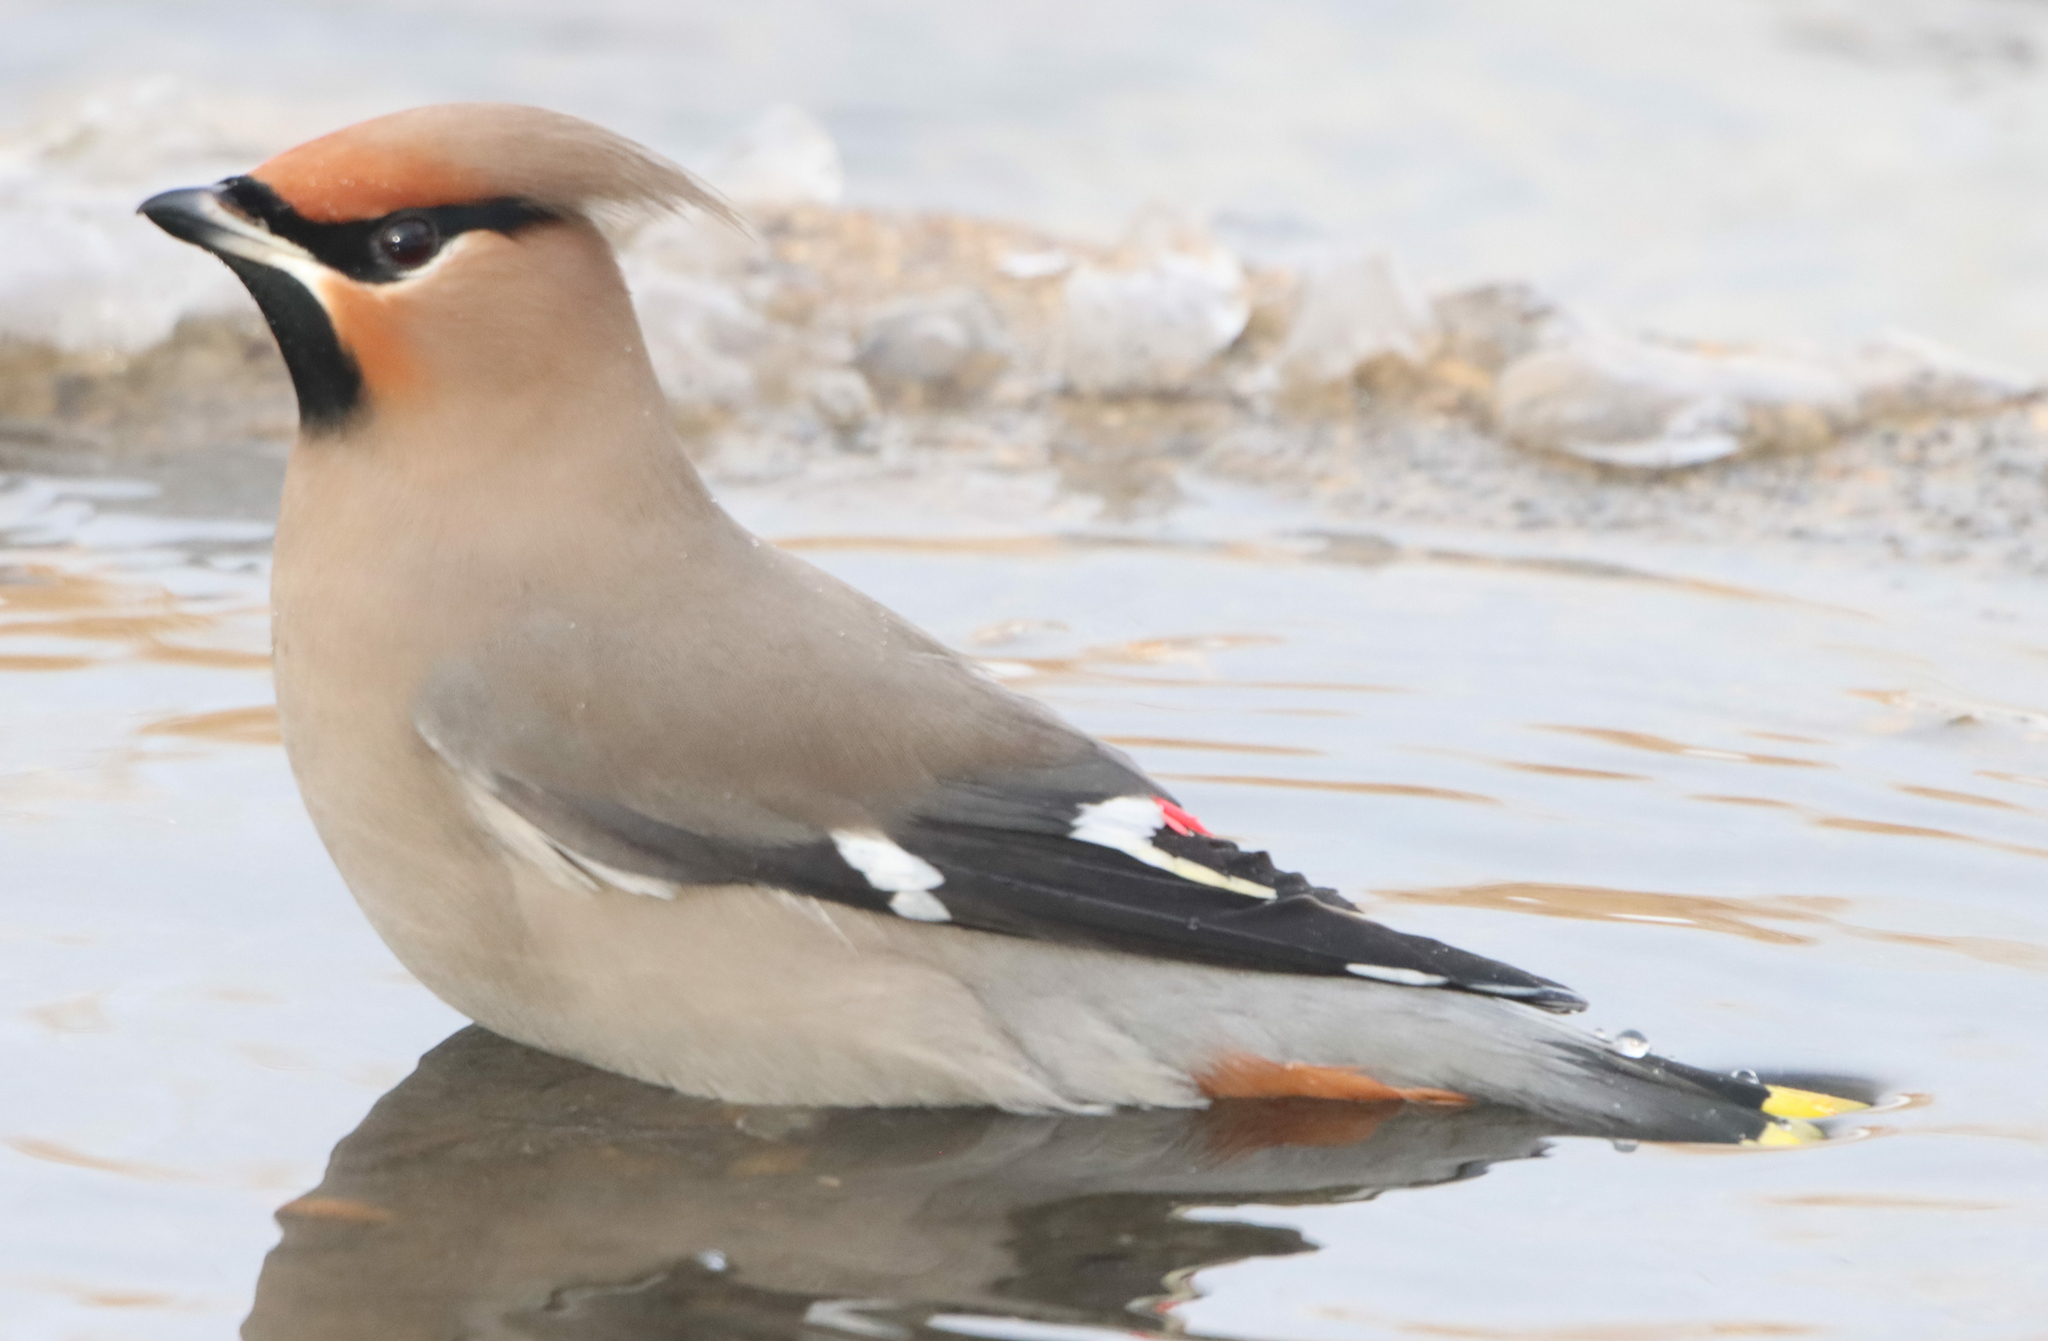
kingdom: Animalia
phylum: Chordata
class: Aves
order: Passeriformes
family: Bombycillidae
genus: Bombycilla
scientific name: Bombycilla garrulus
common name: Bohemian waxwing
